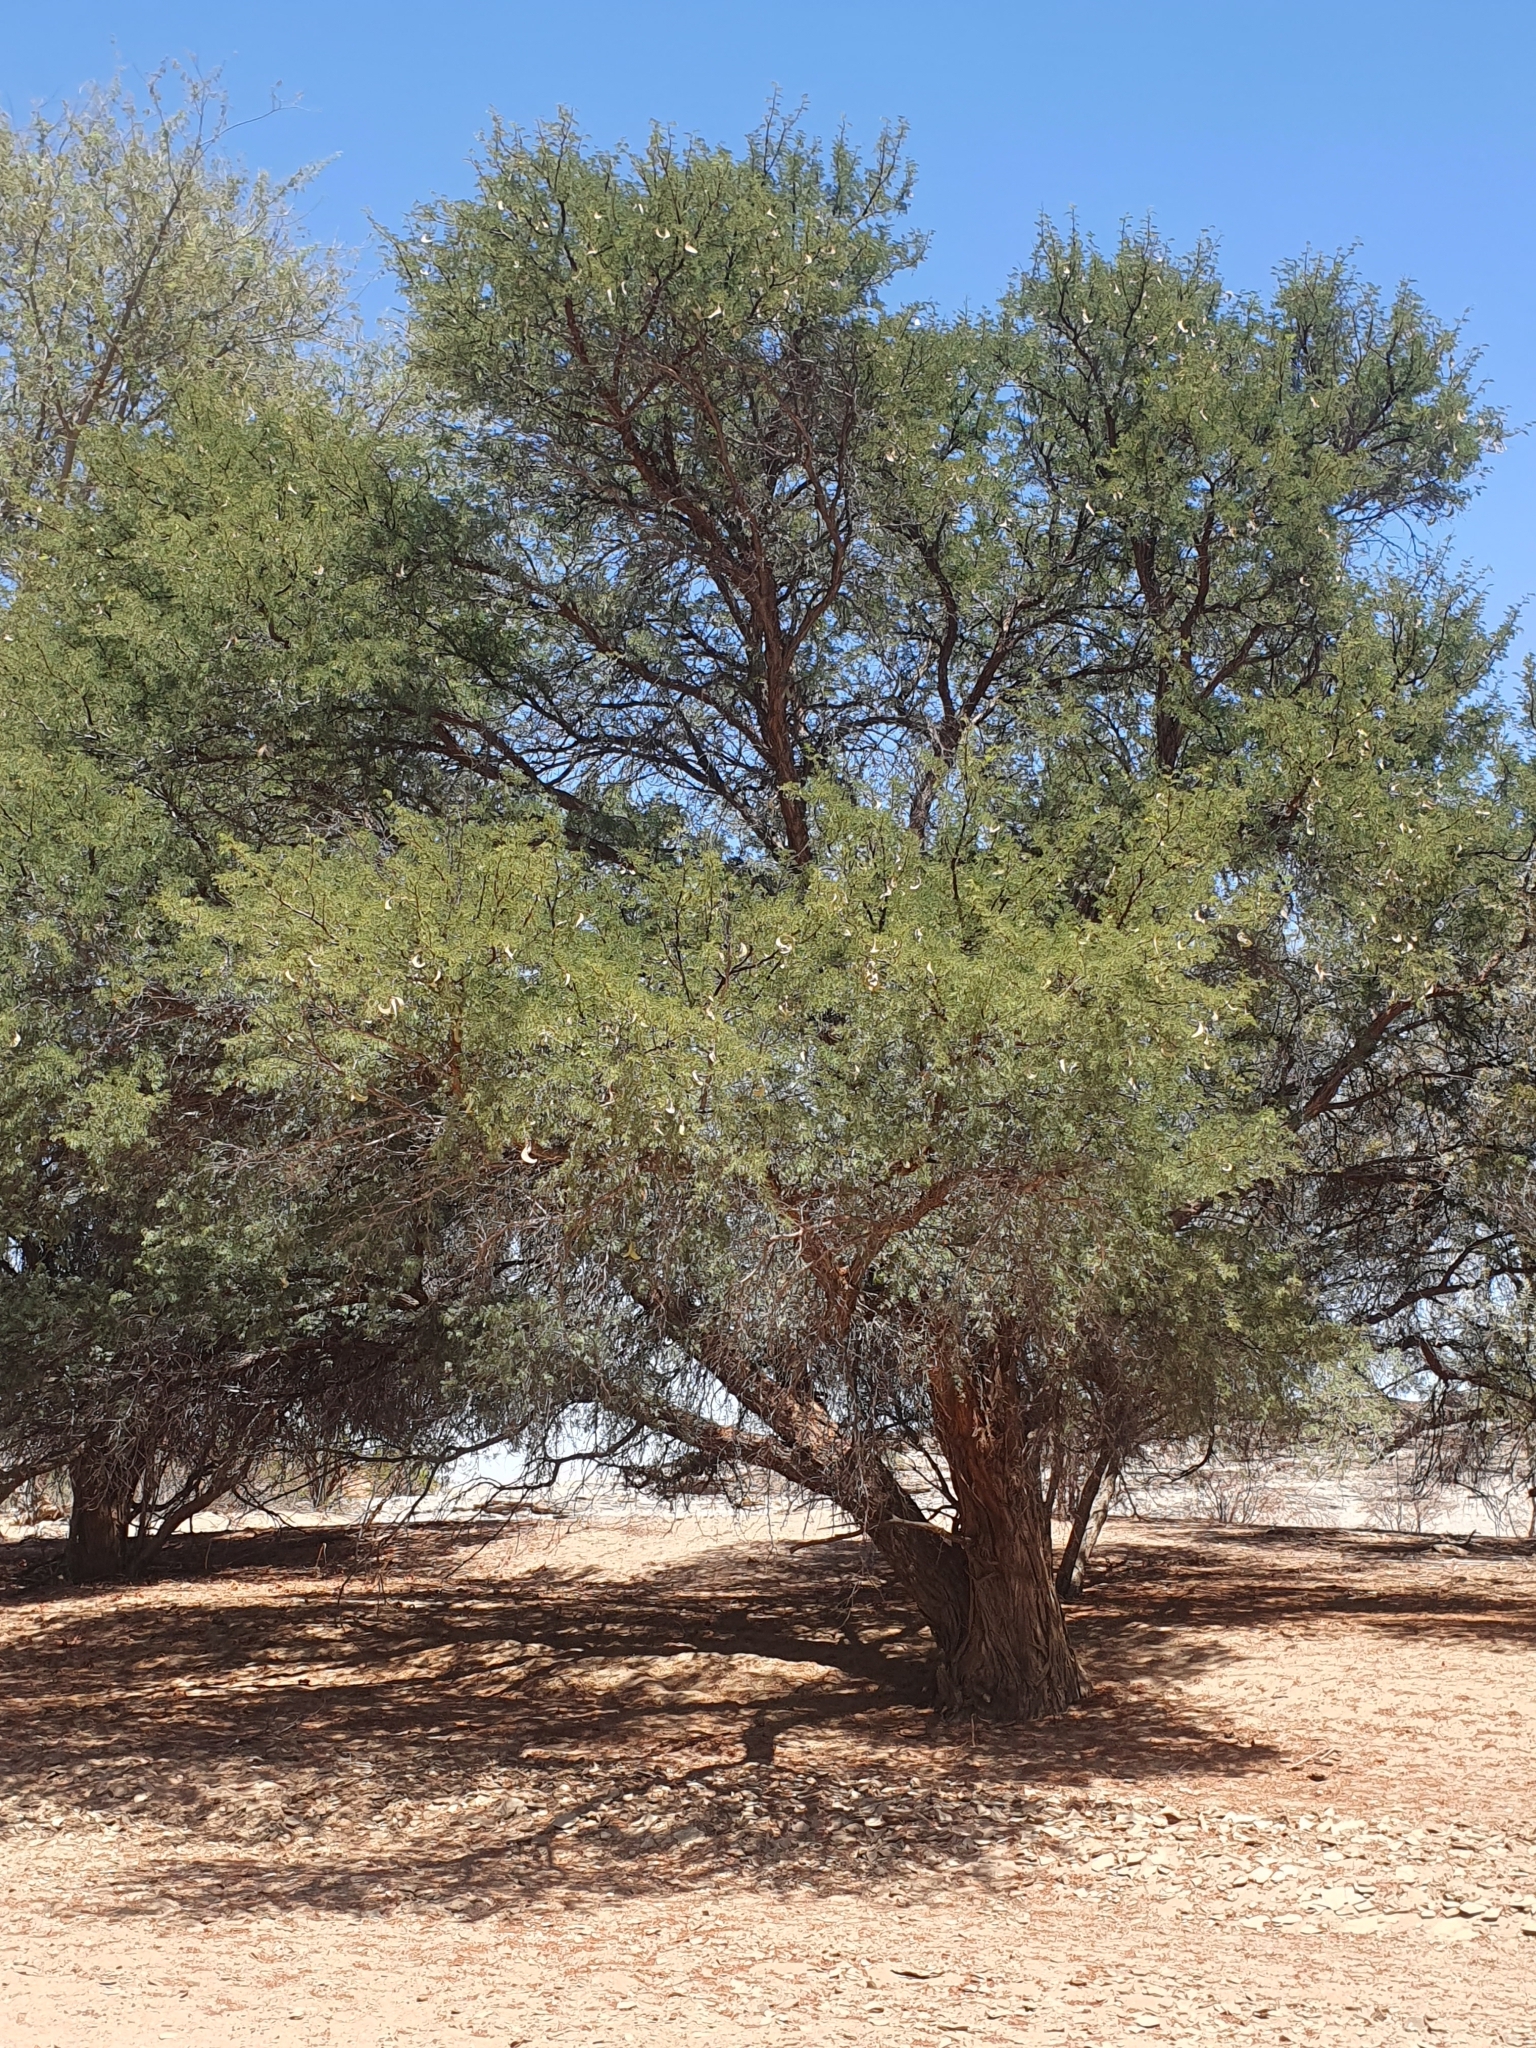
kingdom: Plantae
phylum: Tracheophyta
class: Magnoliopsida
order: Fabales
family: Fabaceae
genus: Vachellia
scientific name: Vachellia erioloba
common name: Camel thorn
